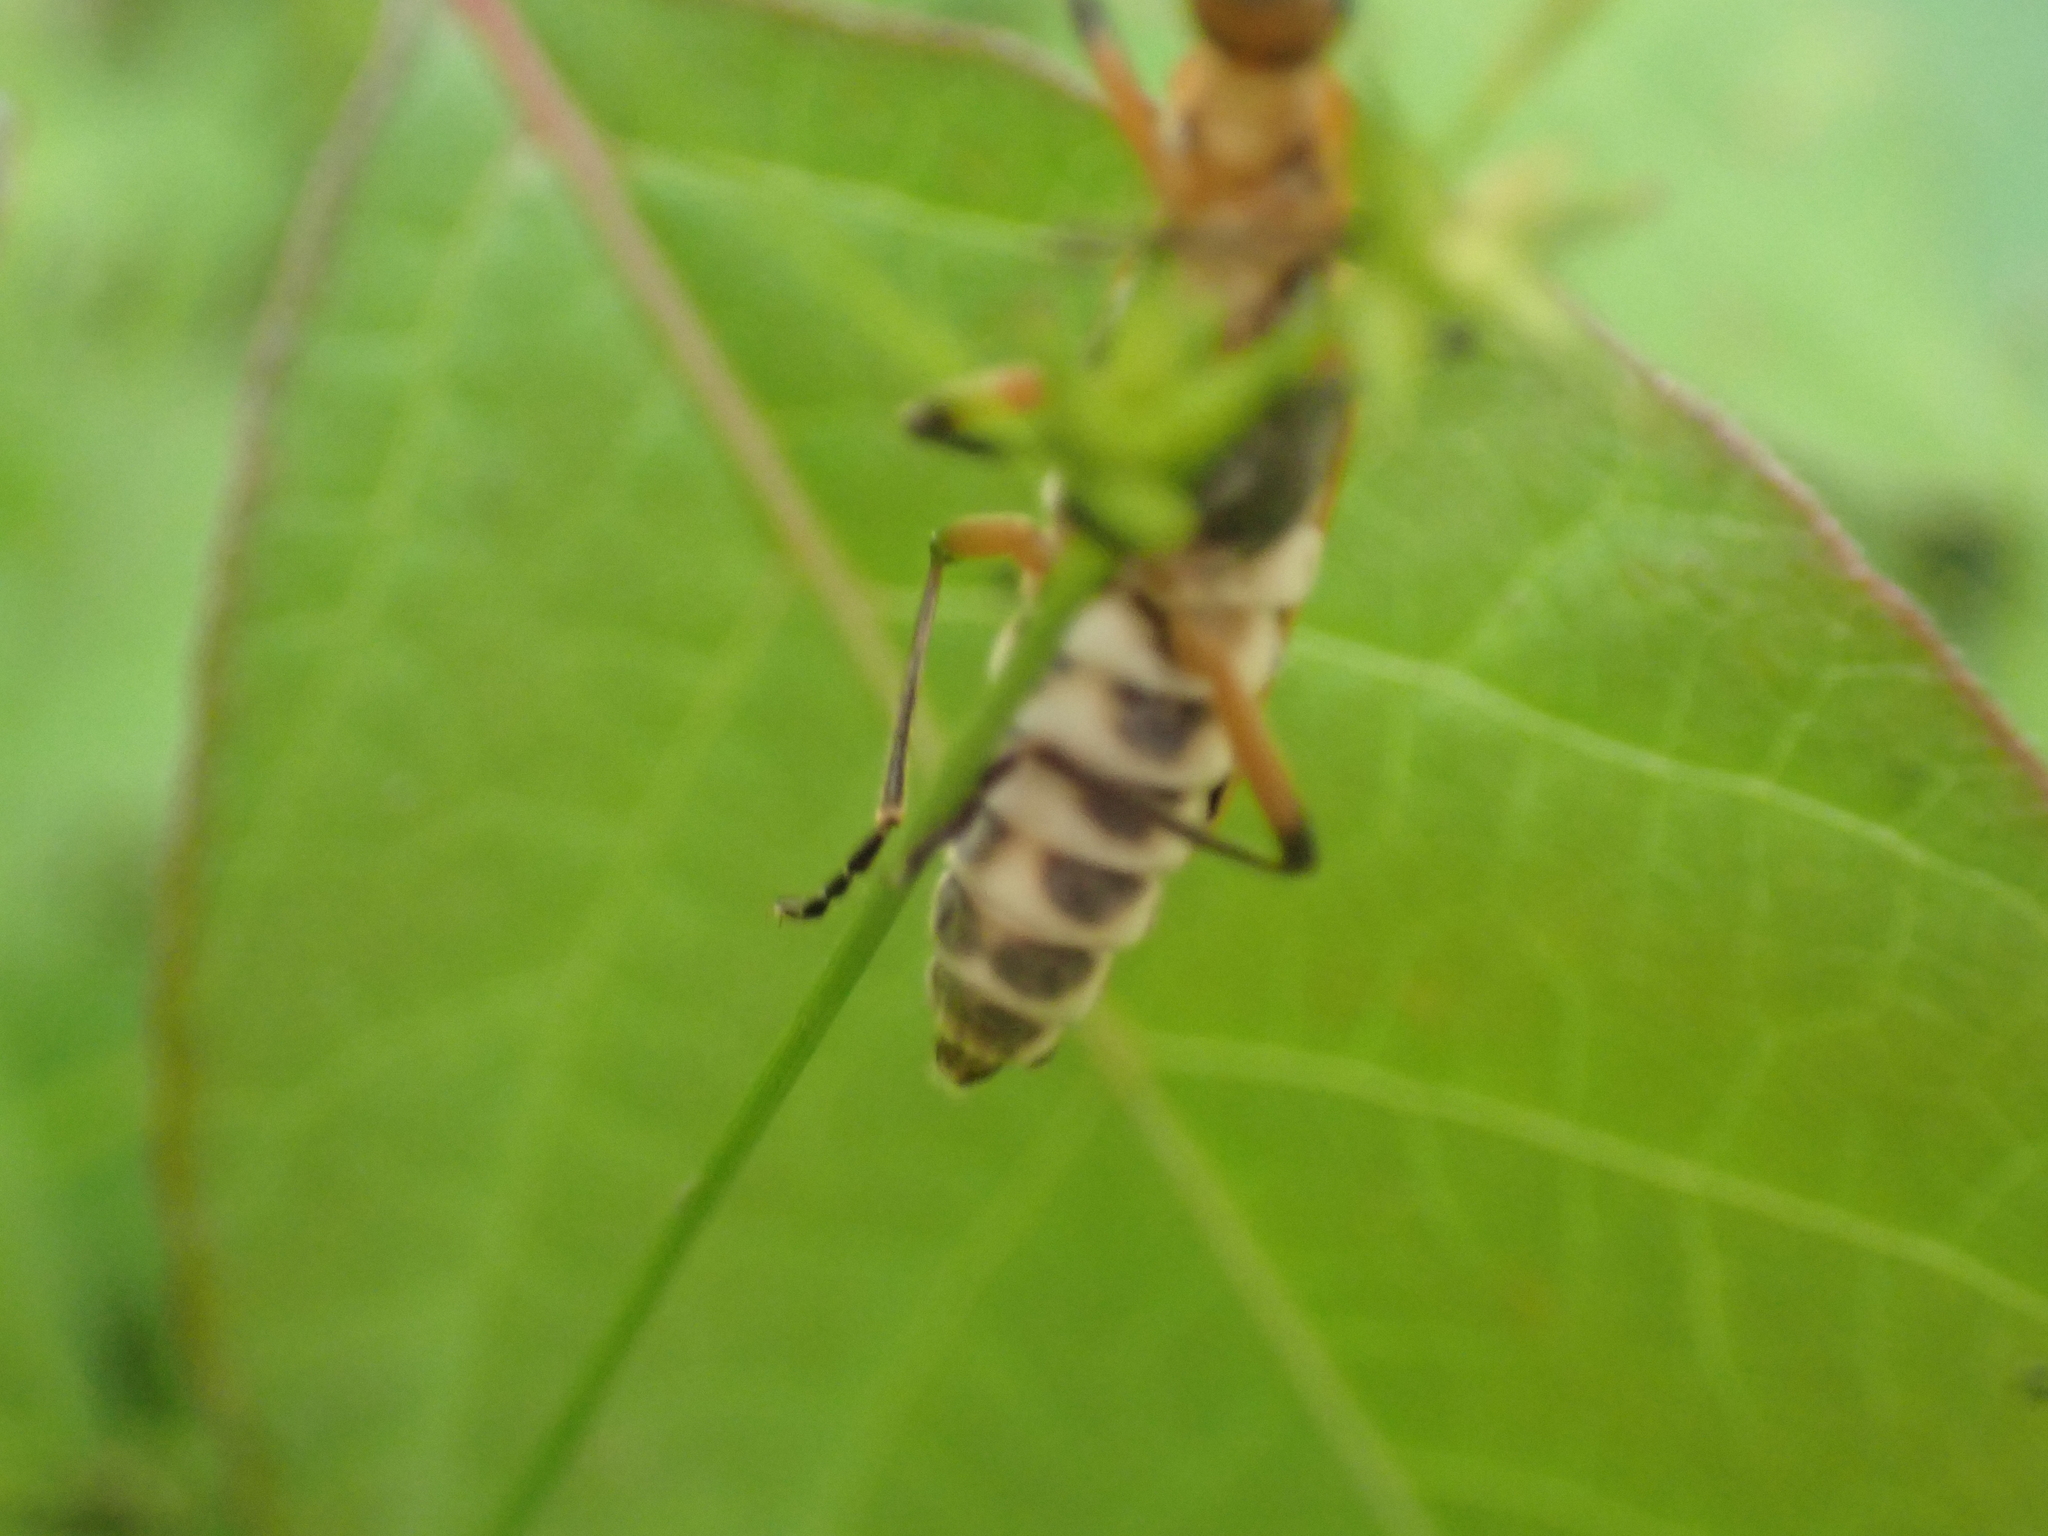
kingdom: Animalia
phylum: Arthropoda
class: Insecta
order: Coleoptera
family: Cantharidae
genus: Chauliognathus
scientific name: Chauliognathus marginatus
